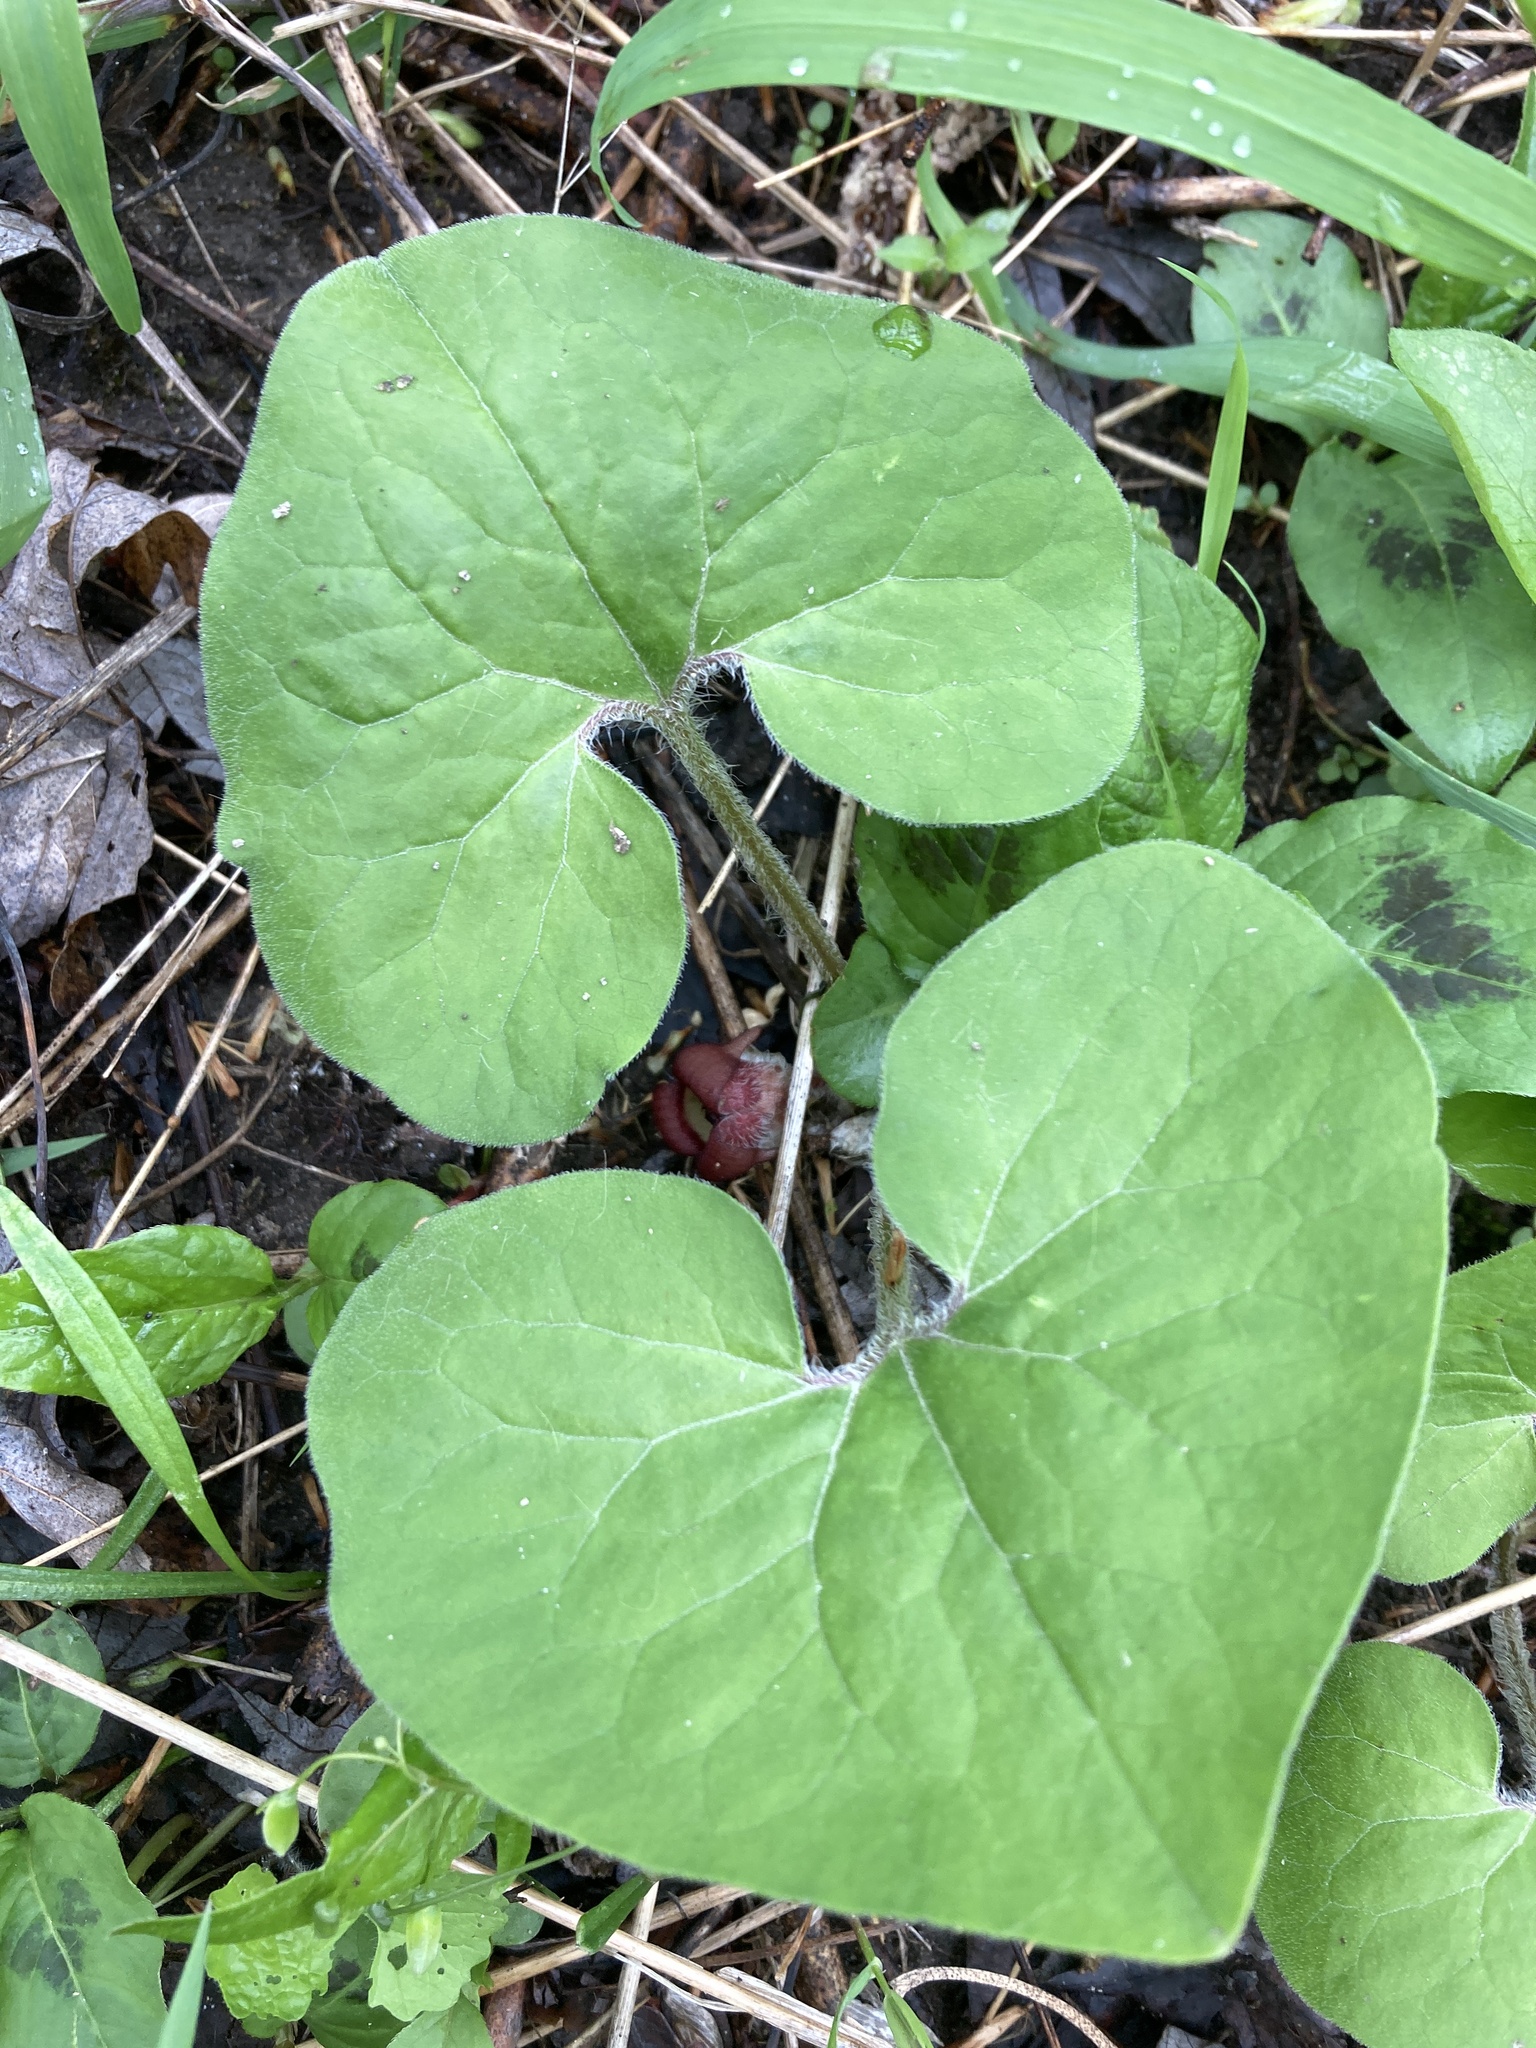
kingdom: Plantae
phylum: Tracheophyta
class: Magnoliopsida
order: Piperales
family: Aristolochiaceae
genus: Asarum
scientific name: Asarum canadense
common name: Wild ginger
